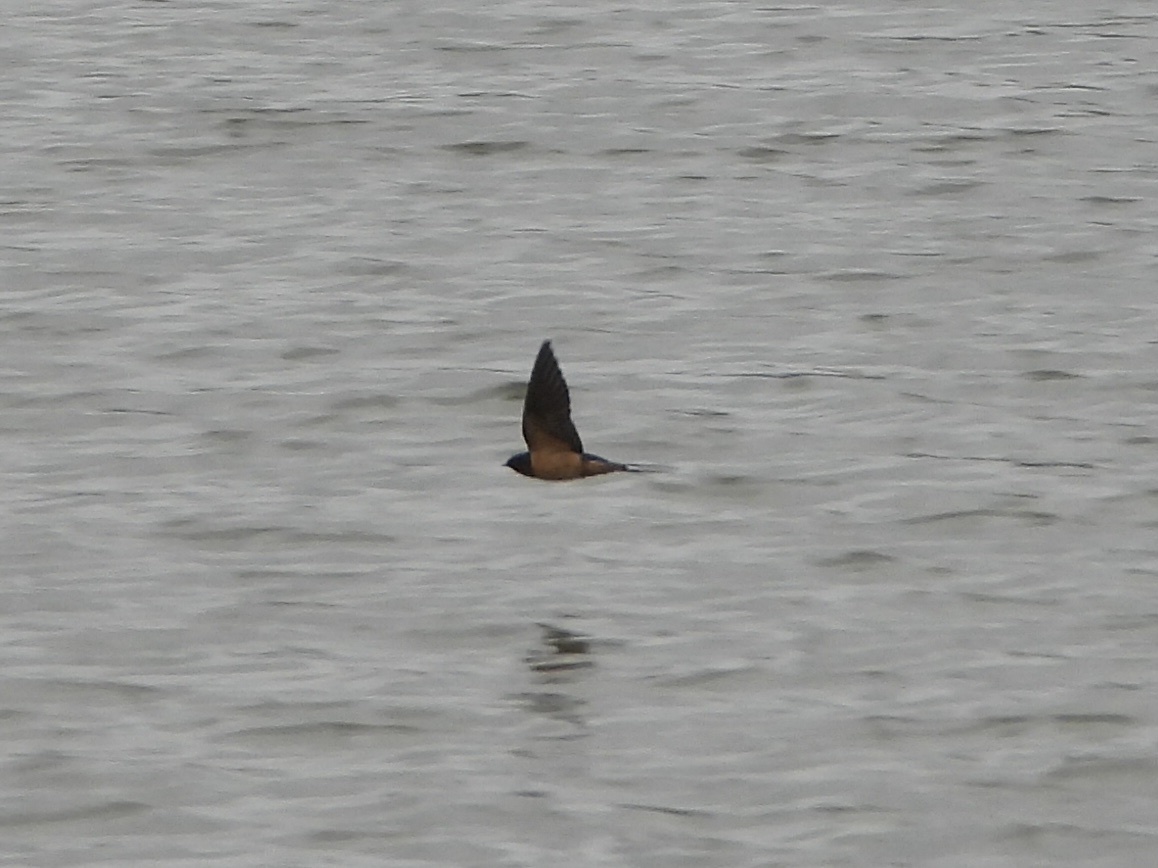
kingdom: Animalia
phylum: Chordata
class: Aves
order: Passeriformes
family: Hirundinidae
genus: Hirundo
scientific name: Hirundo rustica
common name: Barn swallow
